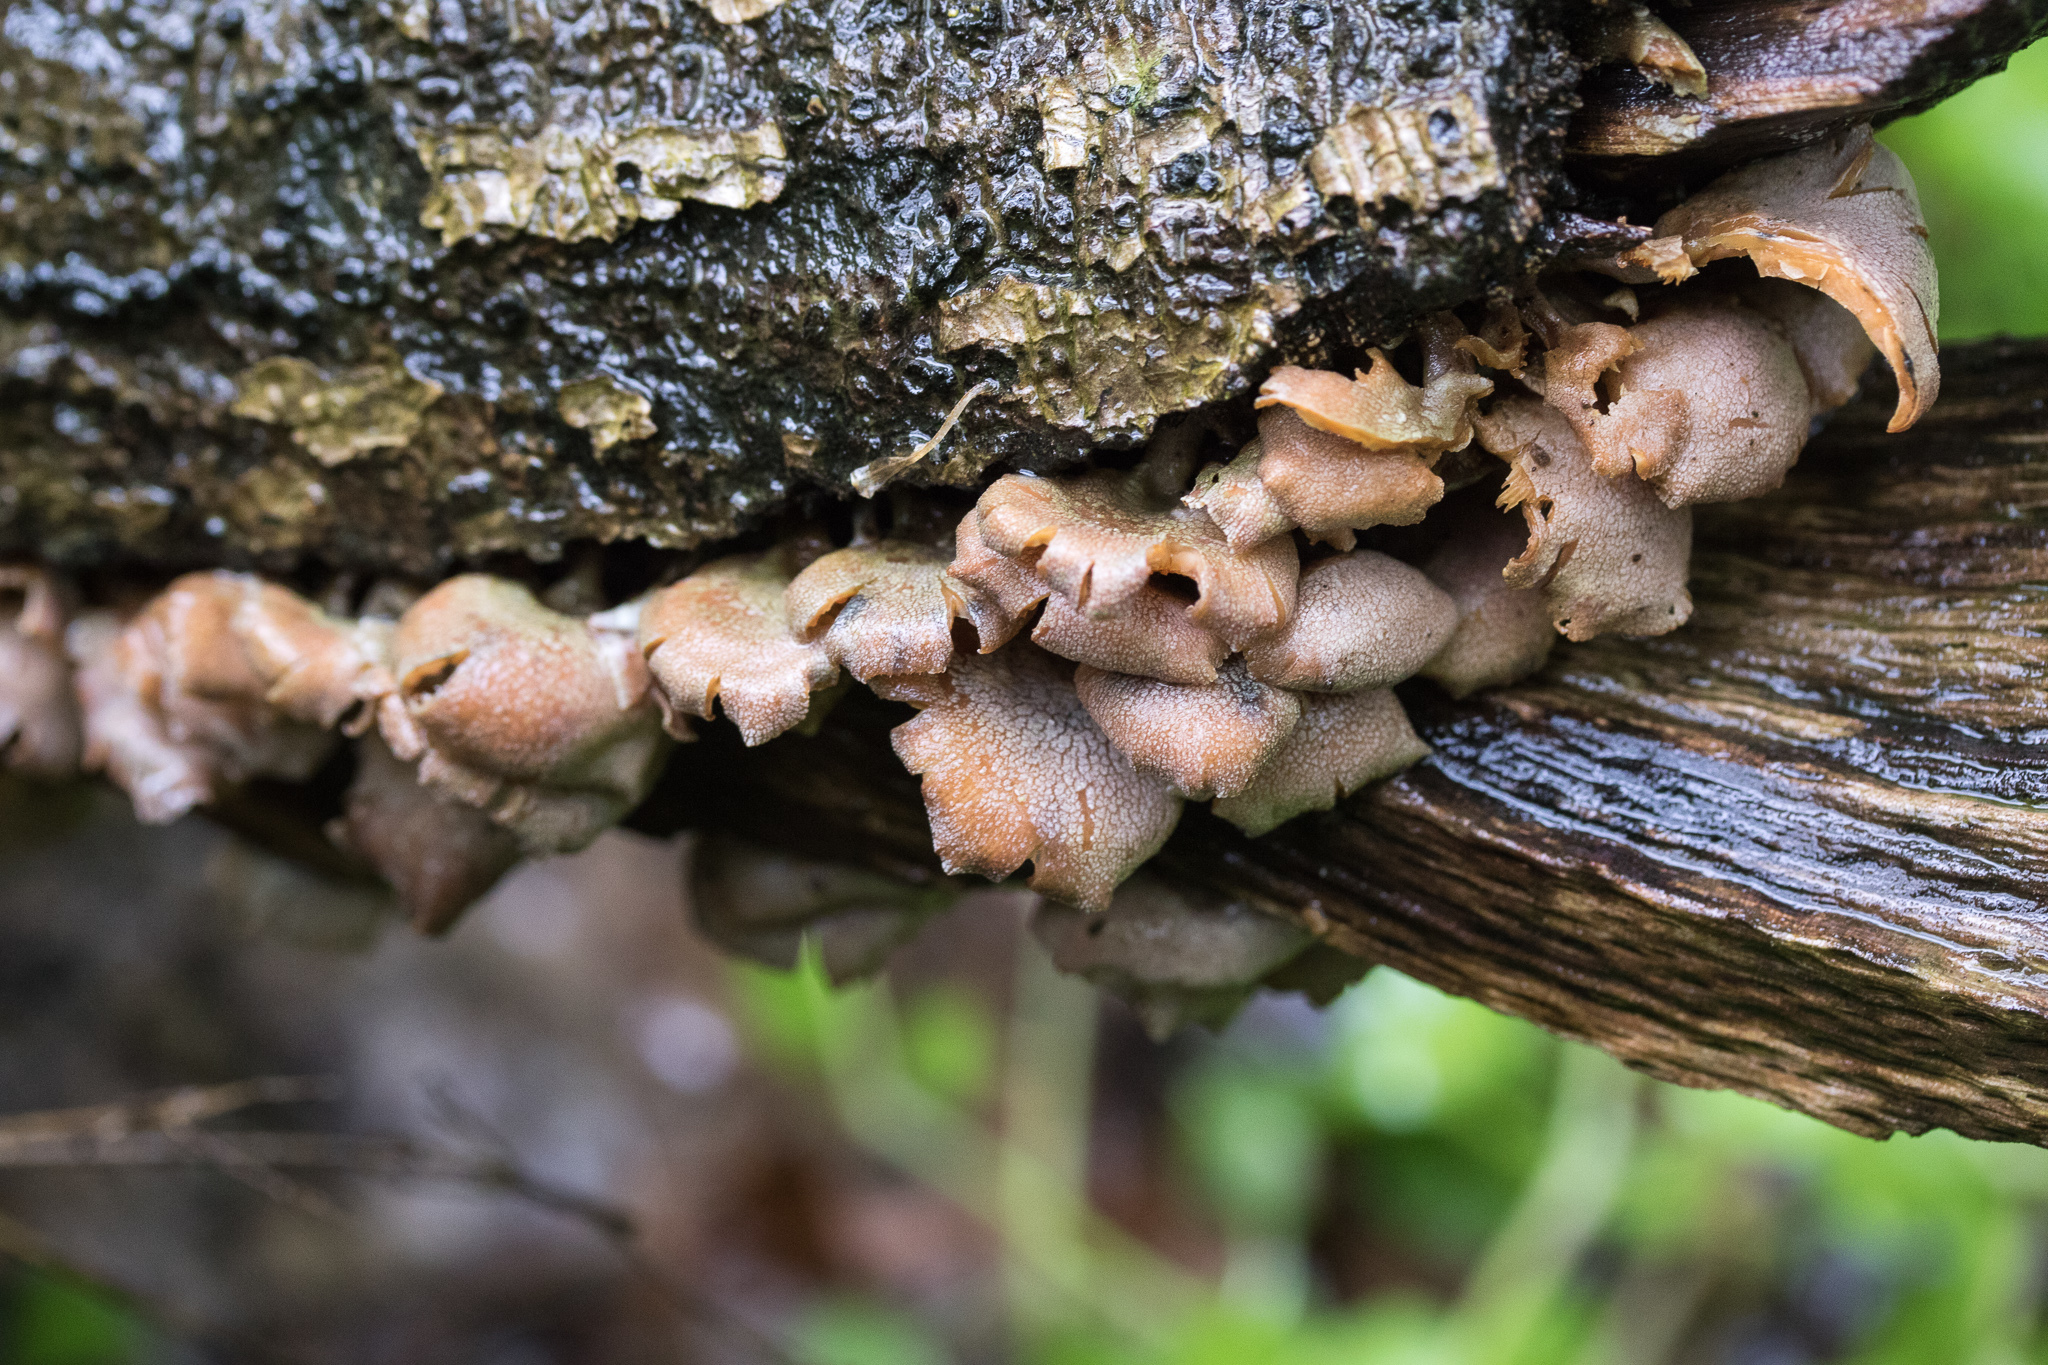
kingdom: Fungi
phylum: Basidiomycota
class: Agaricomycetes
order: Agaricales
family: Mycenaceae
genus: Panellus
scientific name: Panellus stipticus
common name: Bitter oysterling
